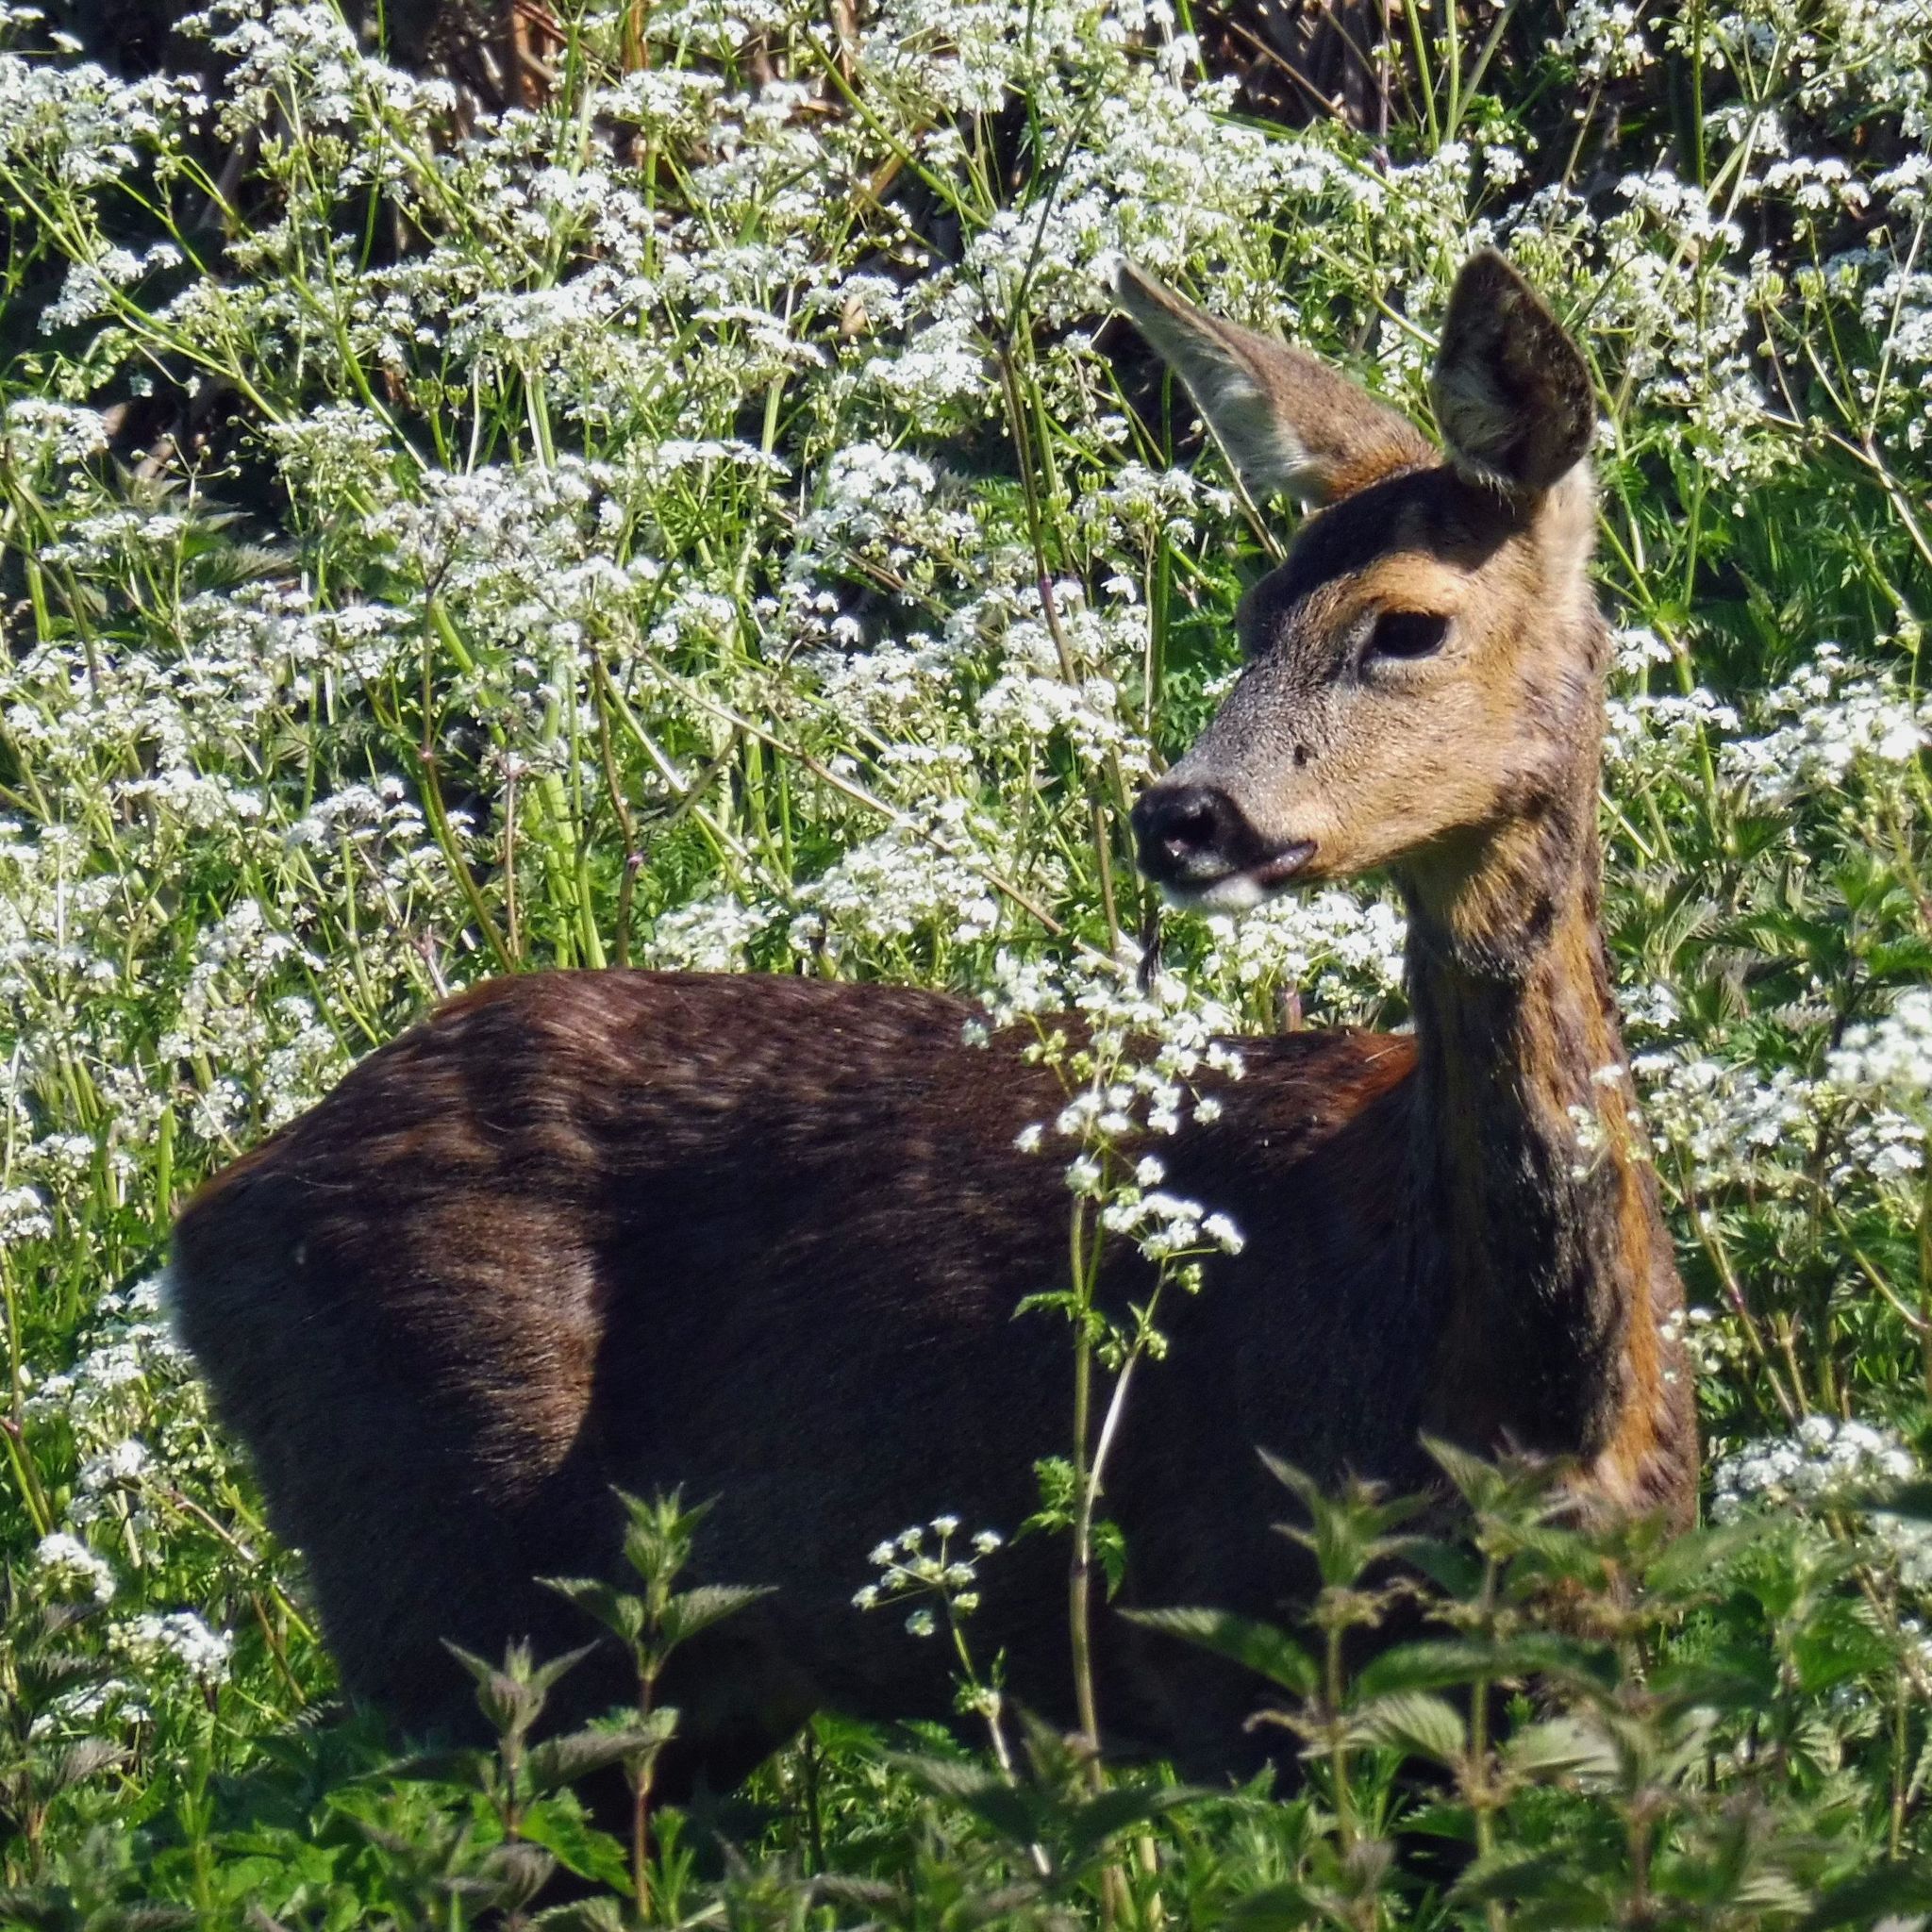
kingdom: Animalia
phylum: Chordata
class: Mammalia
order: Artiodactyla
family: Cervidae
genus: Capreolus
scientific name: Capreolus capreolus
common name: Western roe deer
